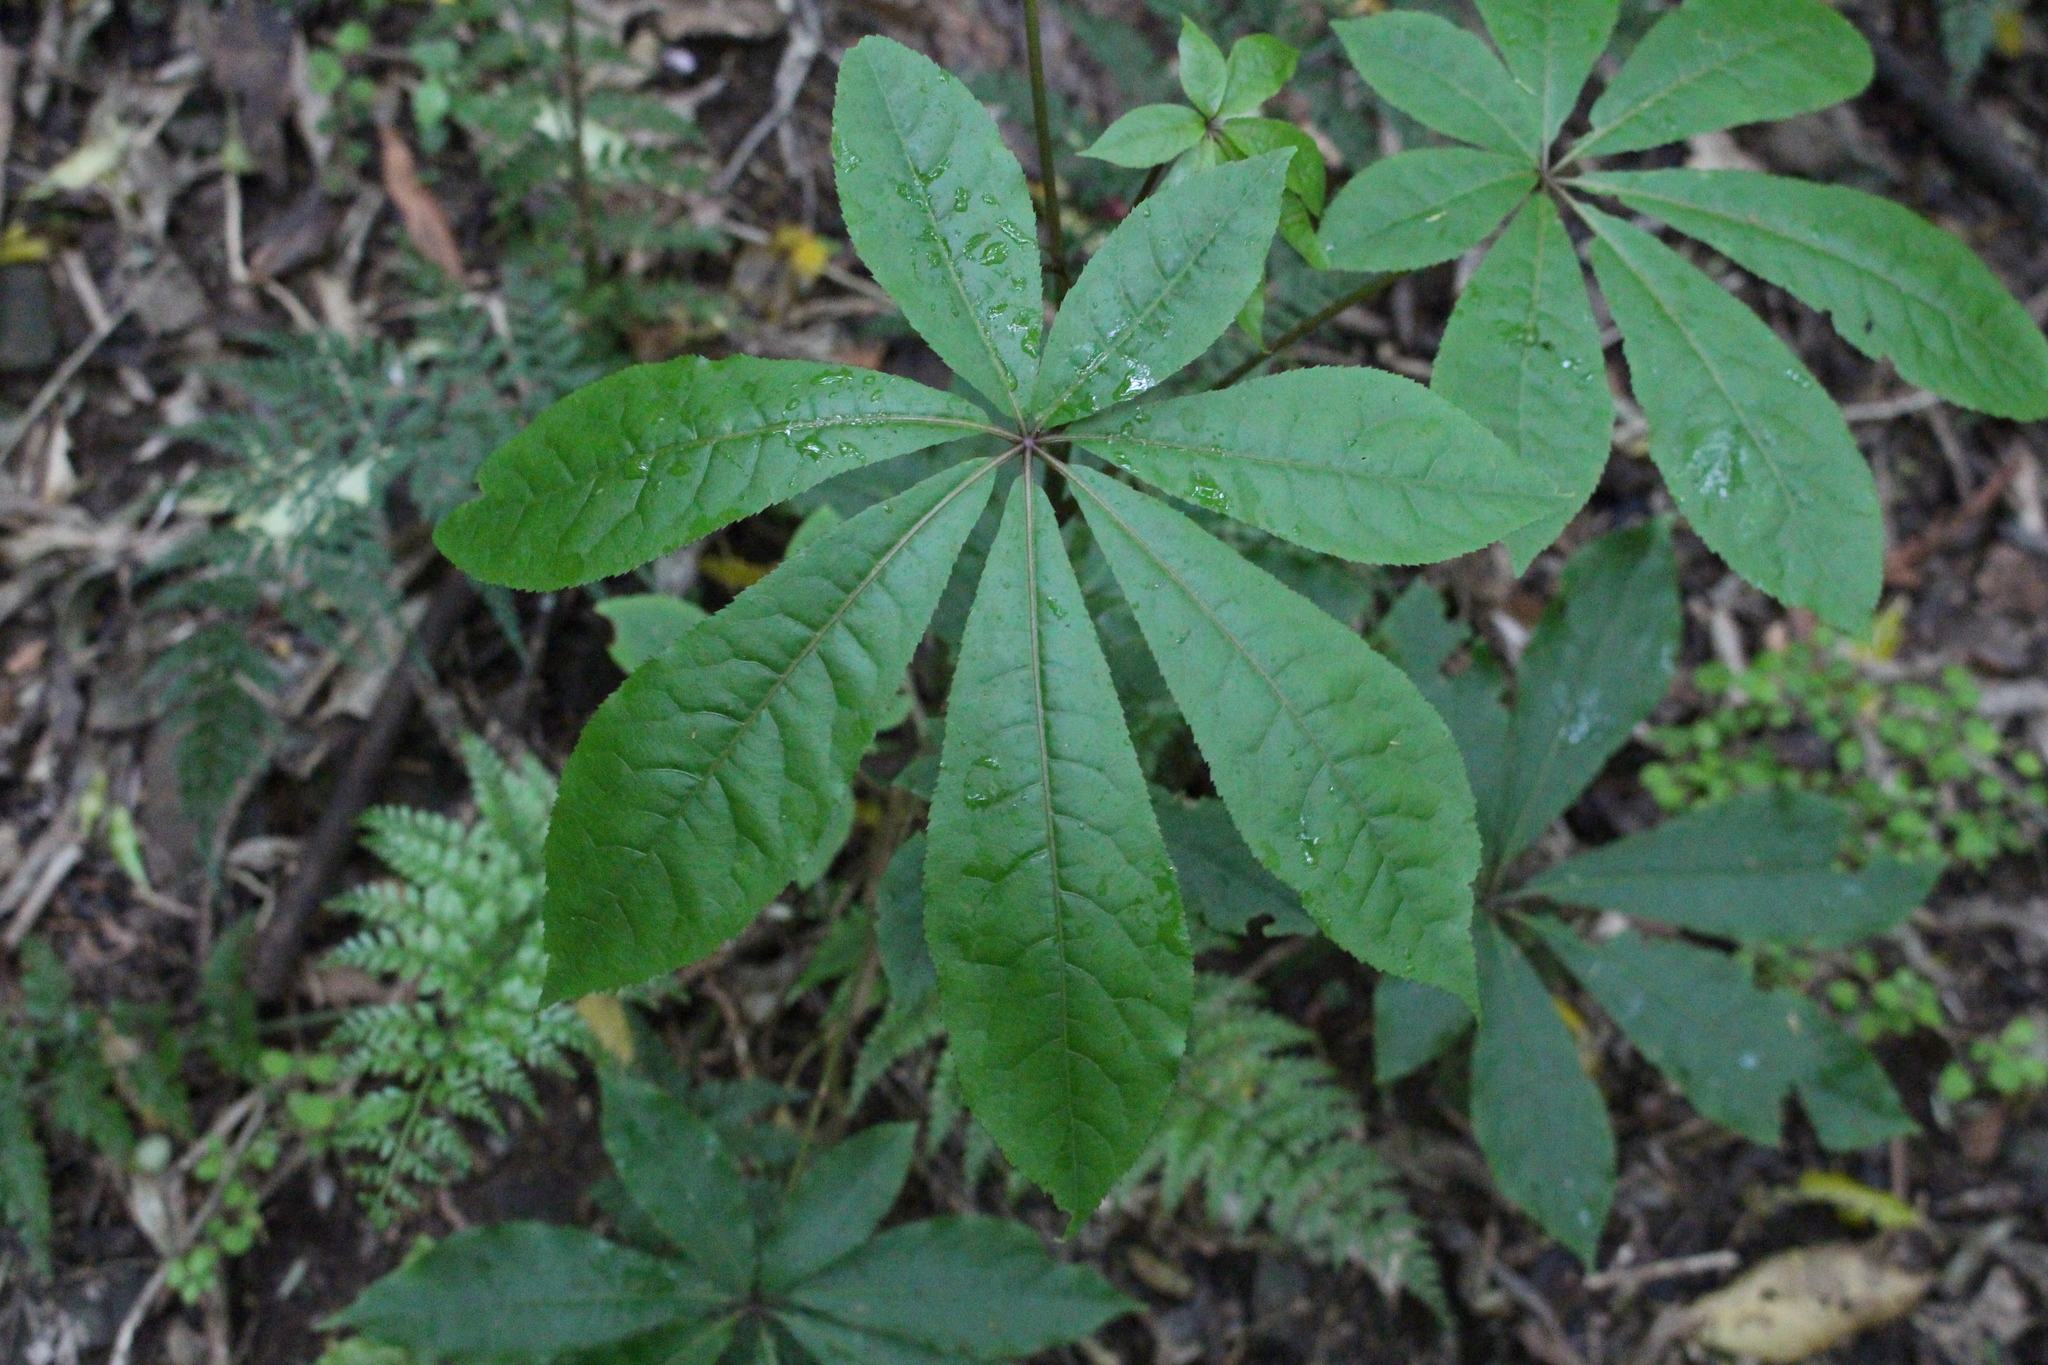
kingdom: Plantae
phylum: Tracheophyta
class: Magnoliopsida
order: Apiales
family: Araliaceae
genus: Schefflera
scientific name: Schefflera digitata
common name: Pate
